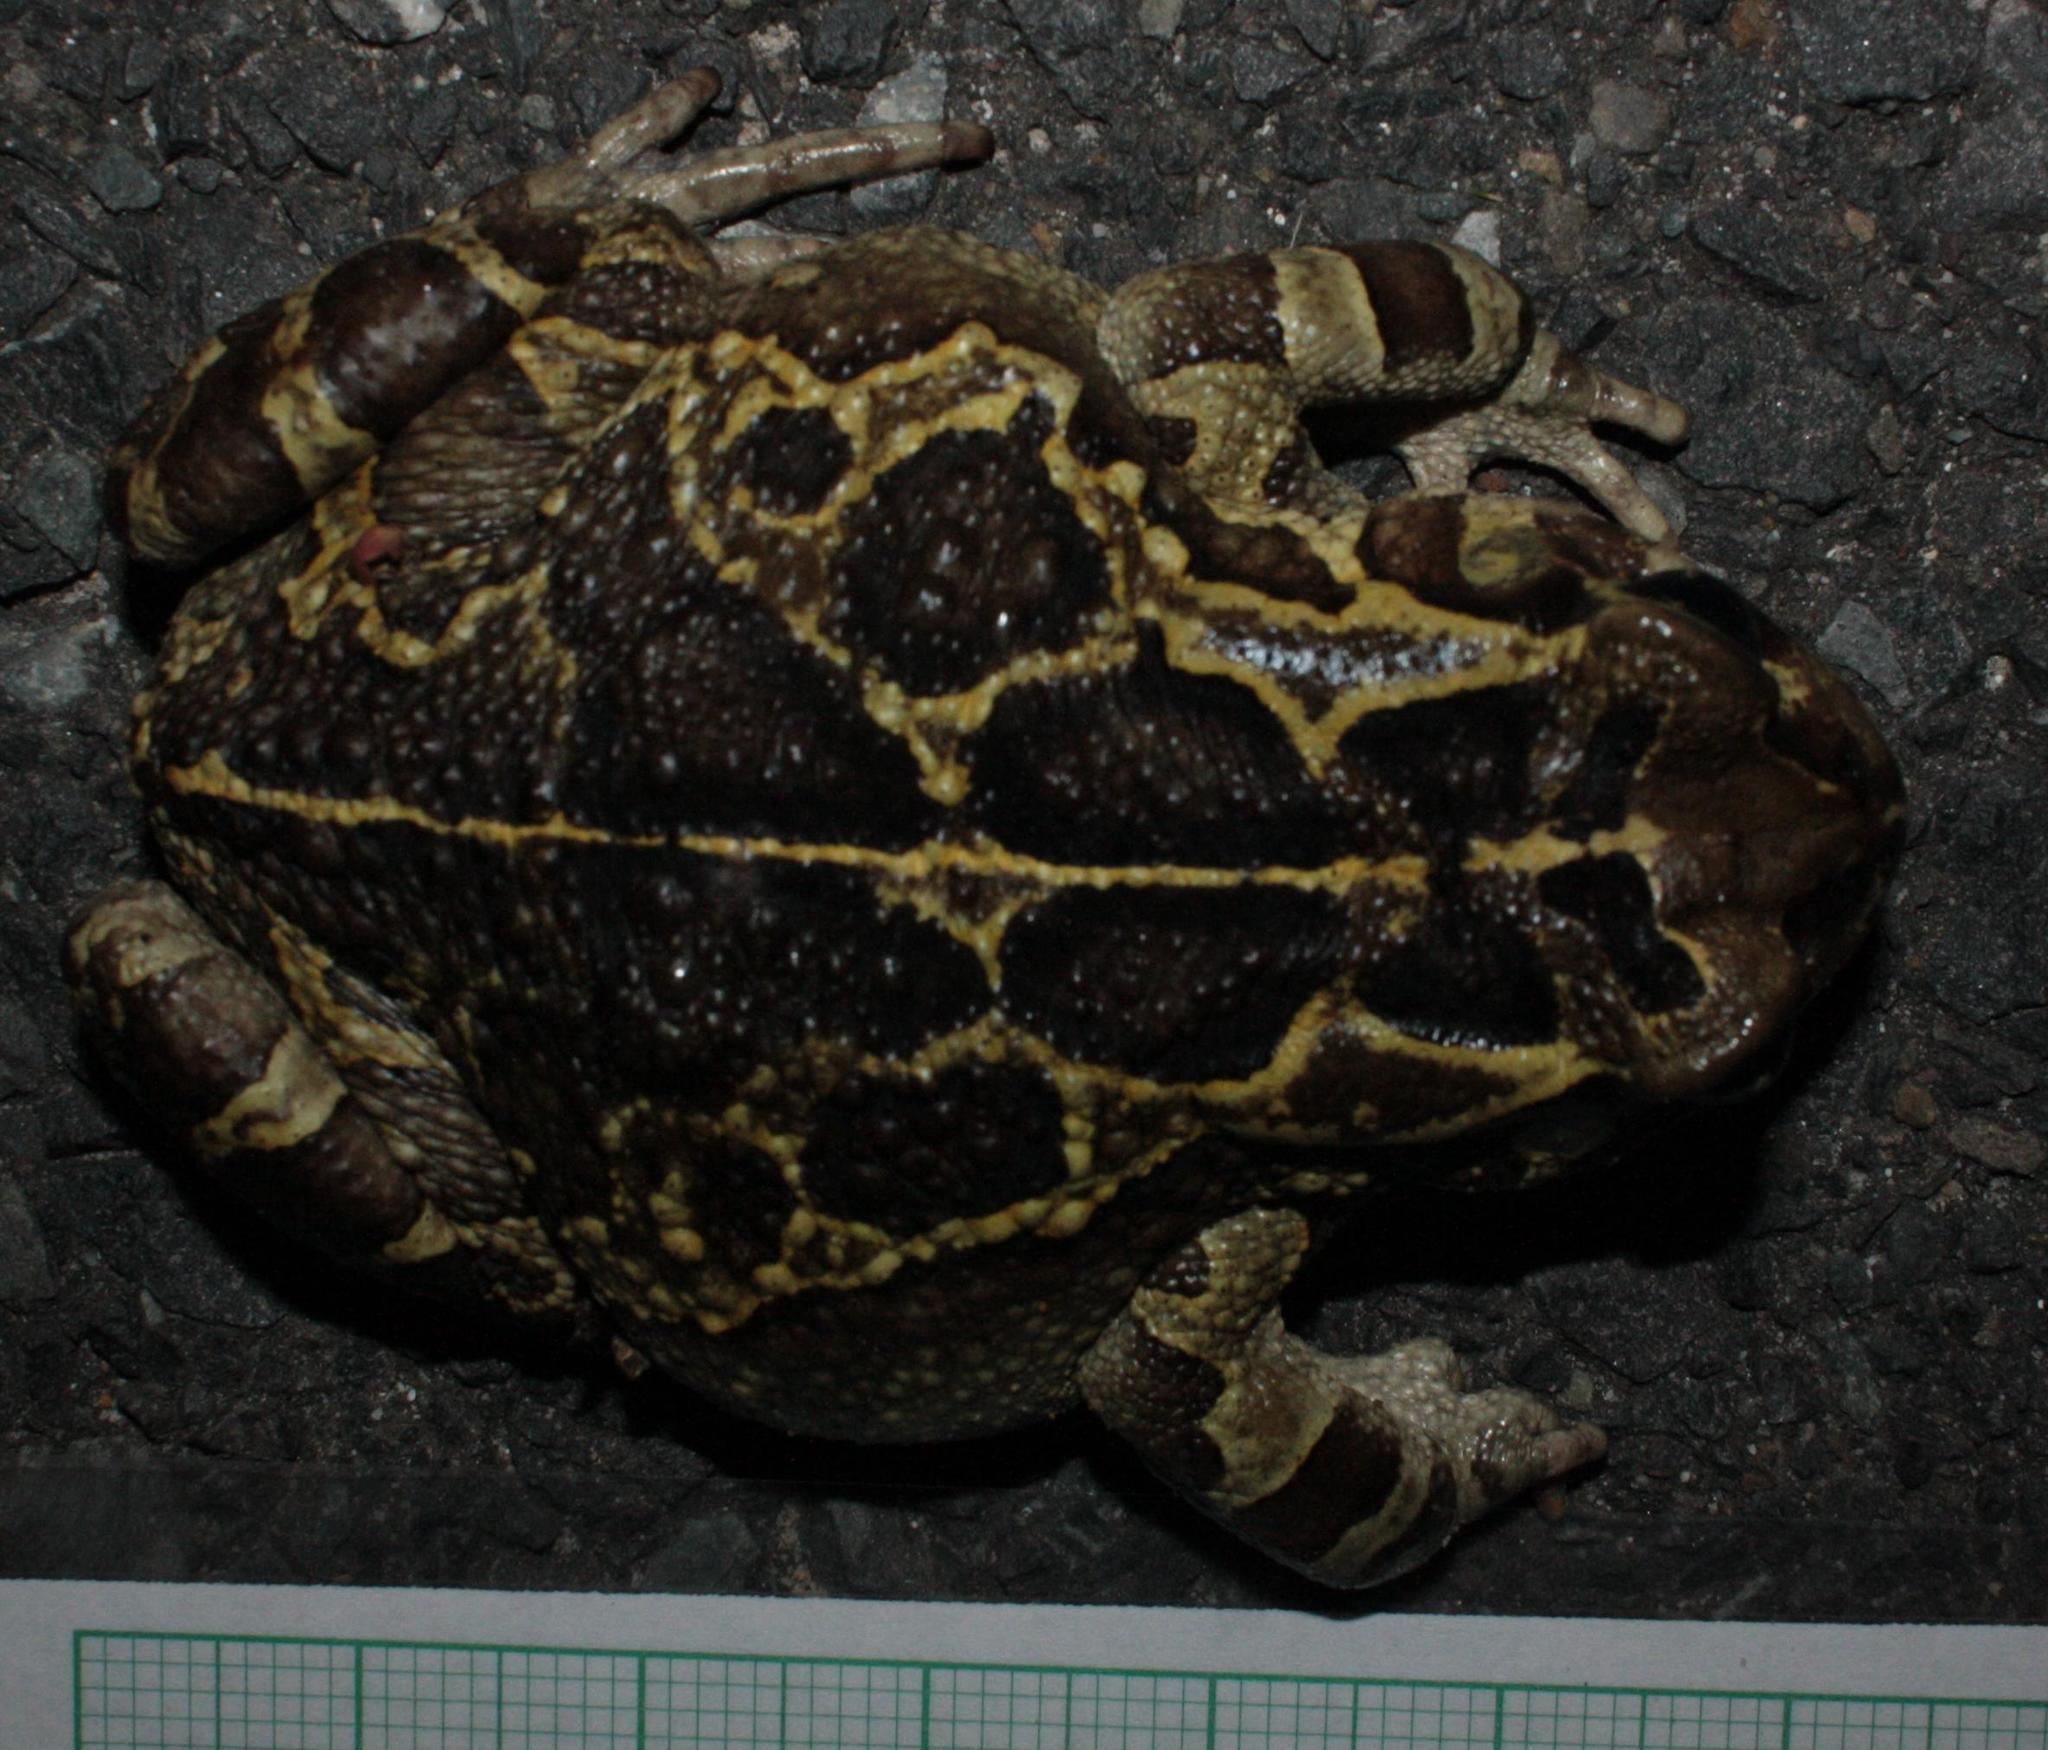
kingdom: Animalia
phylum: Chordata
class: Amphibia
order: Anura
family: Bufonidae
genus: Sclerophrys
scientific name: Sclerophrys pantherina
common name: Panther toad
